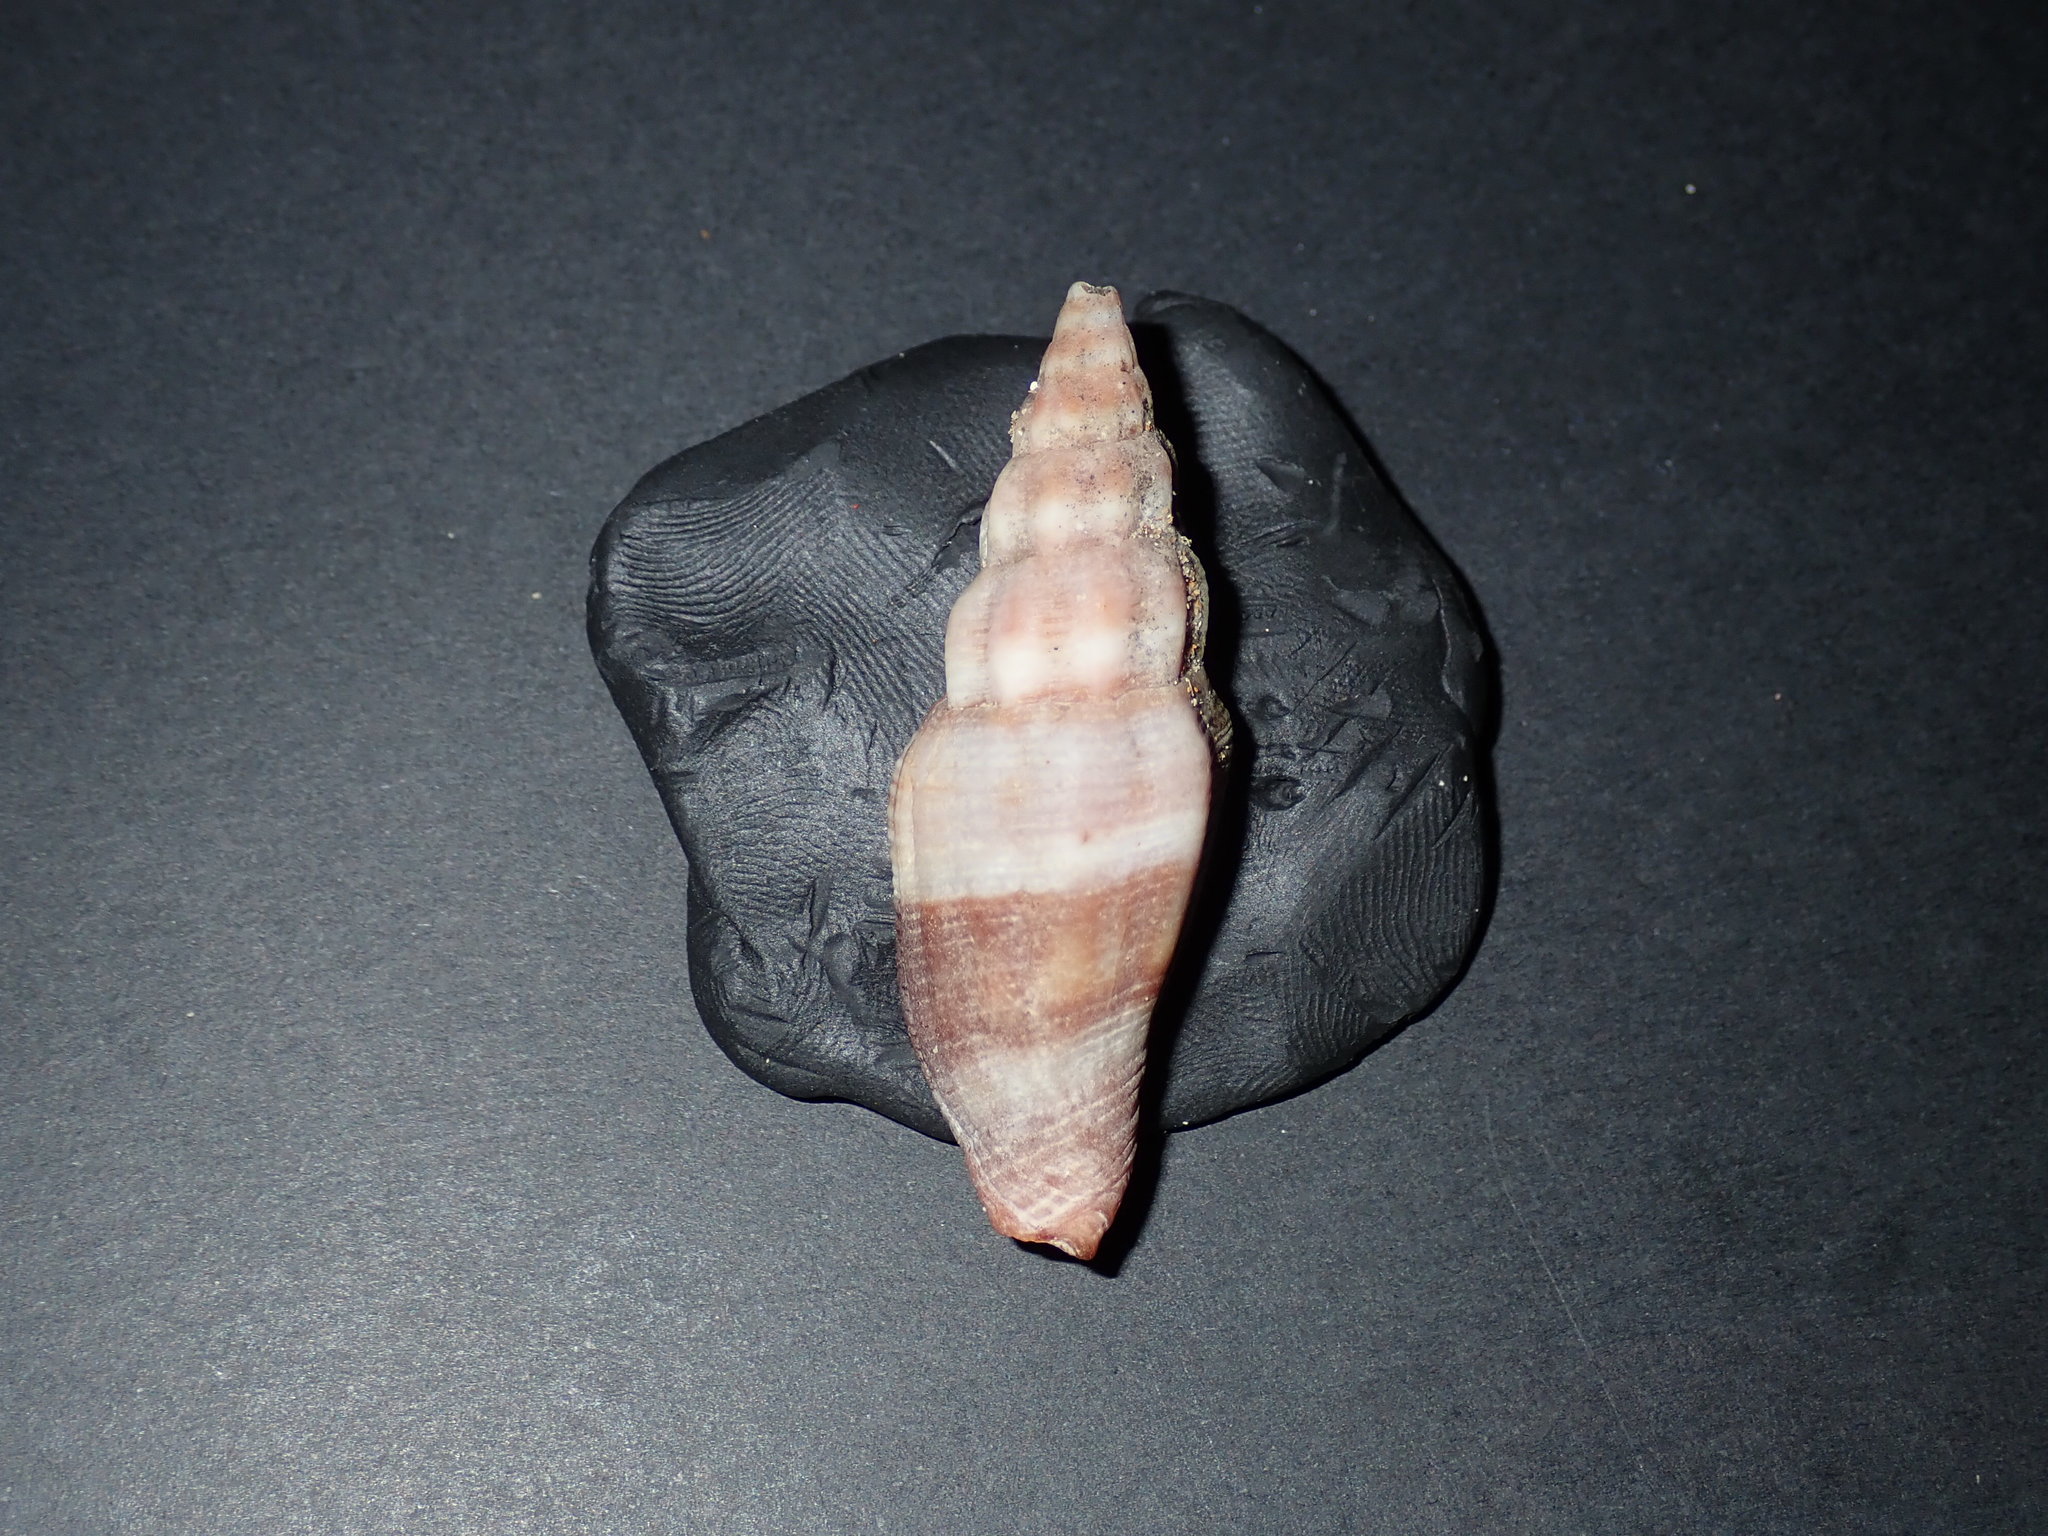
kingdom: Animalia
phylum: Mollusca
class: Gastropoda
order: Neogastropoda
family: Costellariidae
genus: Vexillum
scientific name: Vexillum vulpecula
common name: Little fox miter
